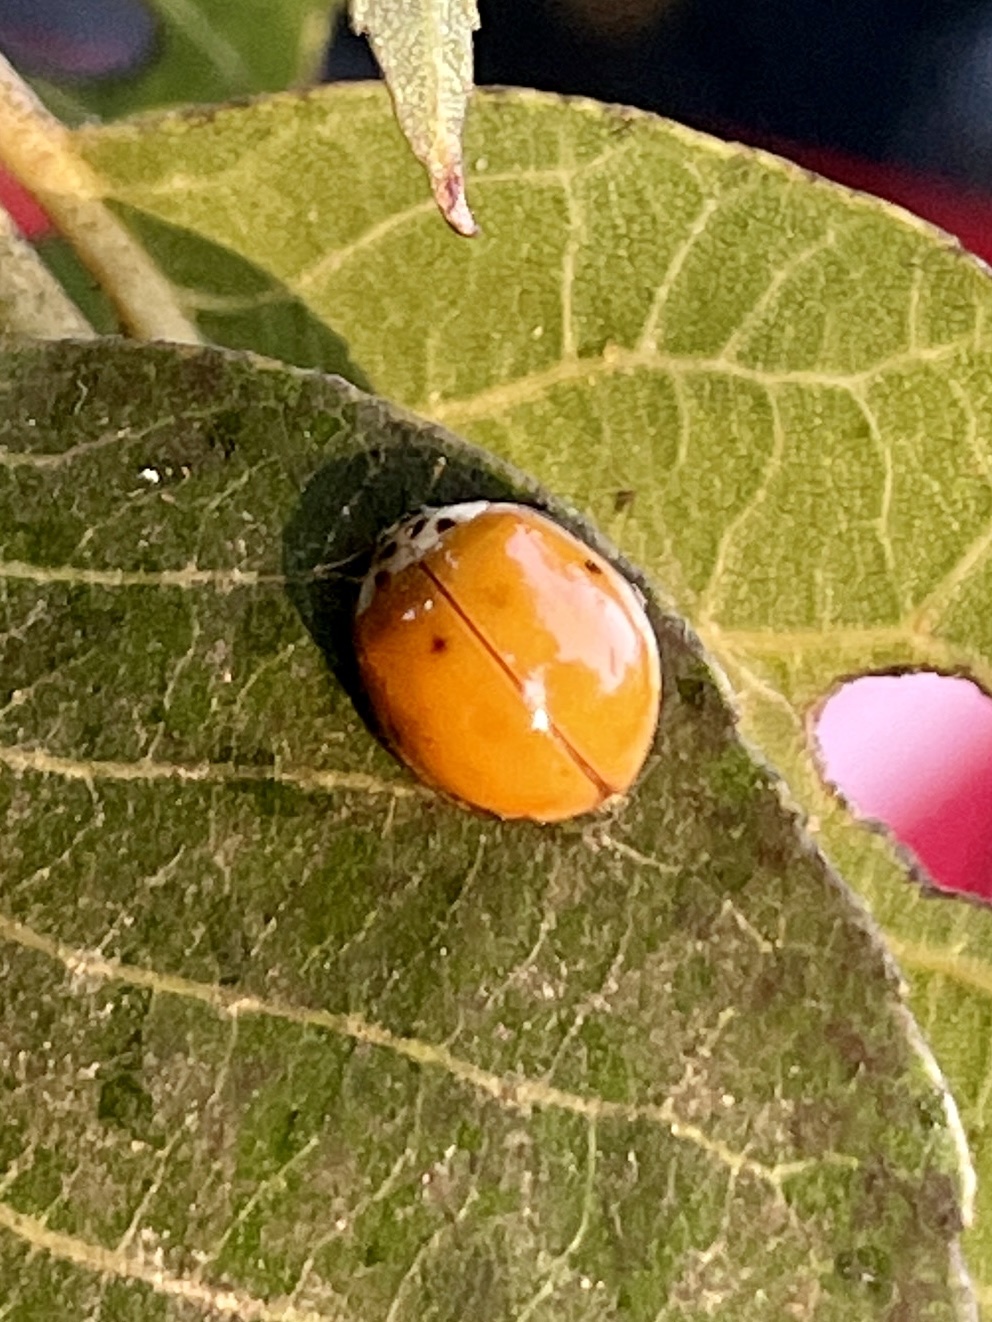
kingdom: Animalia
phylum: Arthropoda
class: Insecta
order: Coleoptera
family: Coccinellidae
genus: Harmonia
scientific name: Harmonia axyridis
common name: Harlequin ladybird
